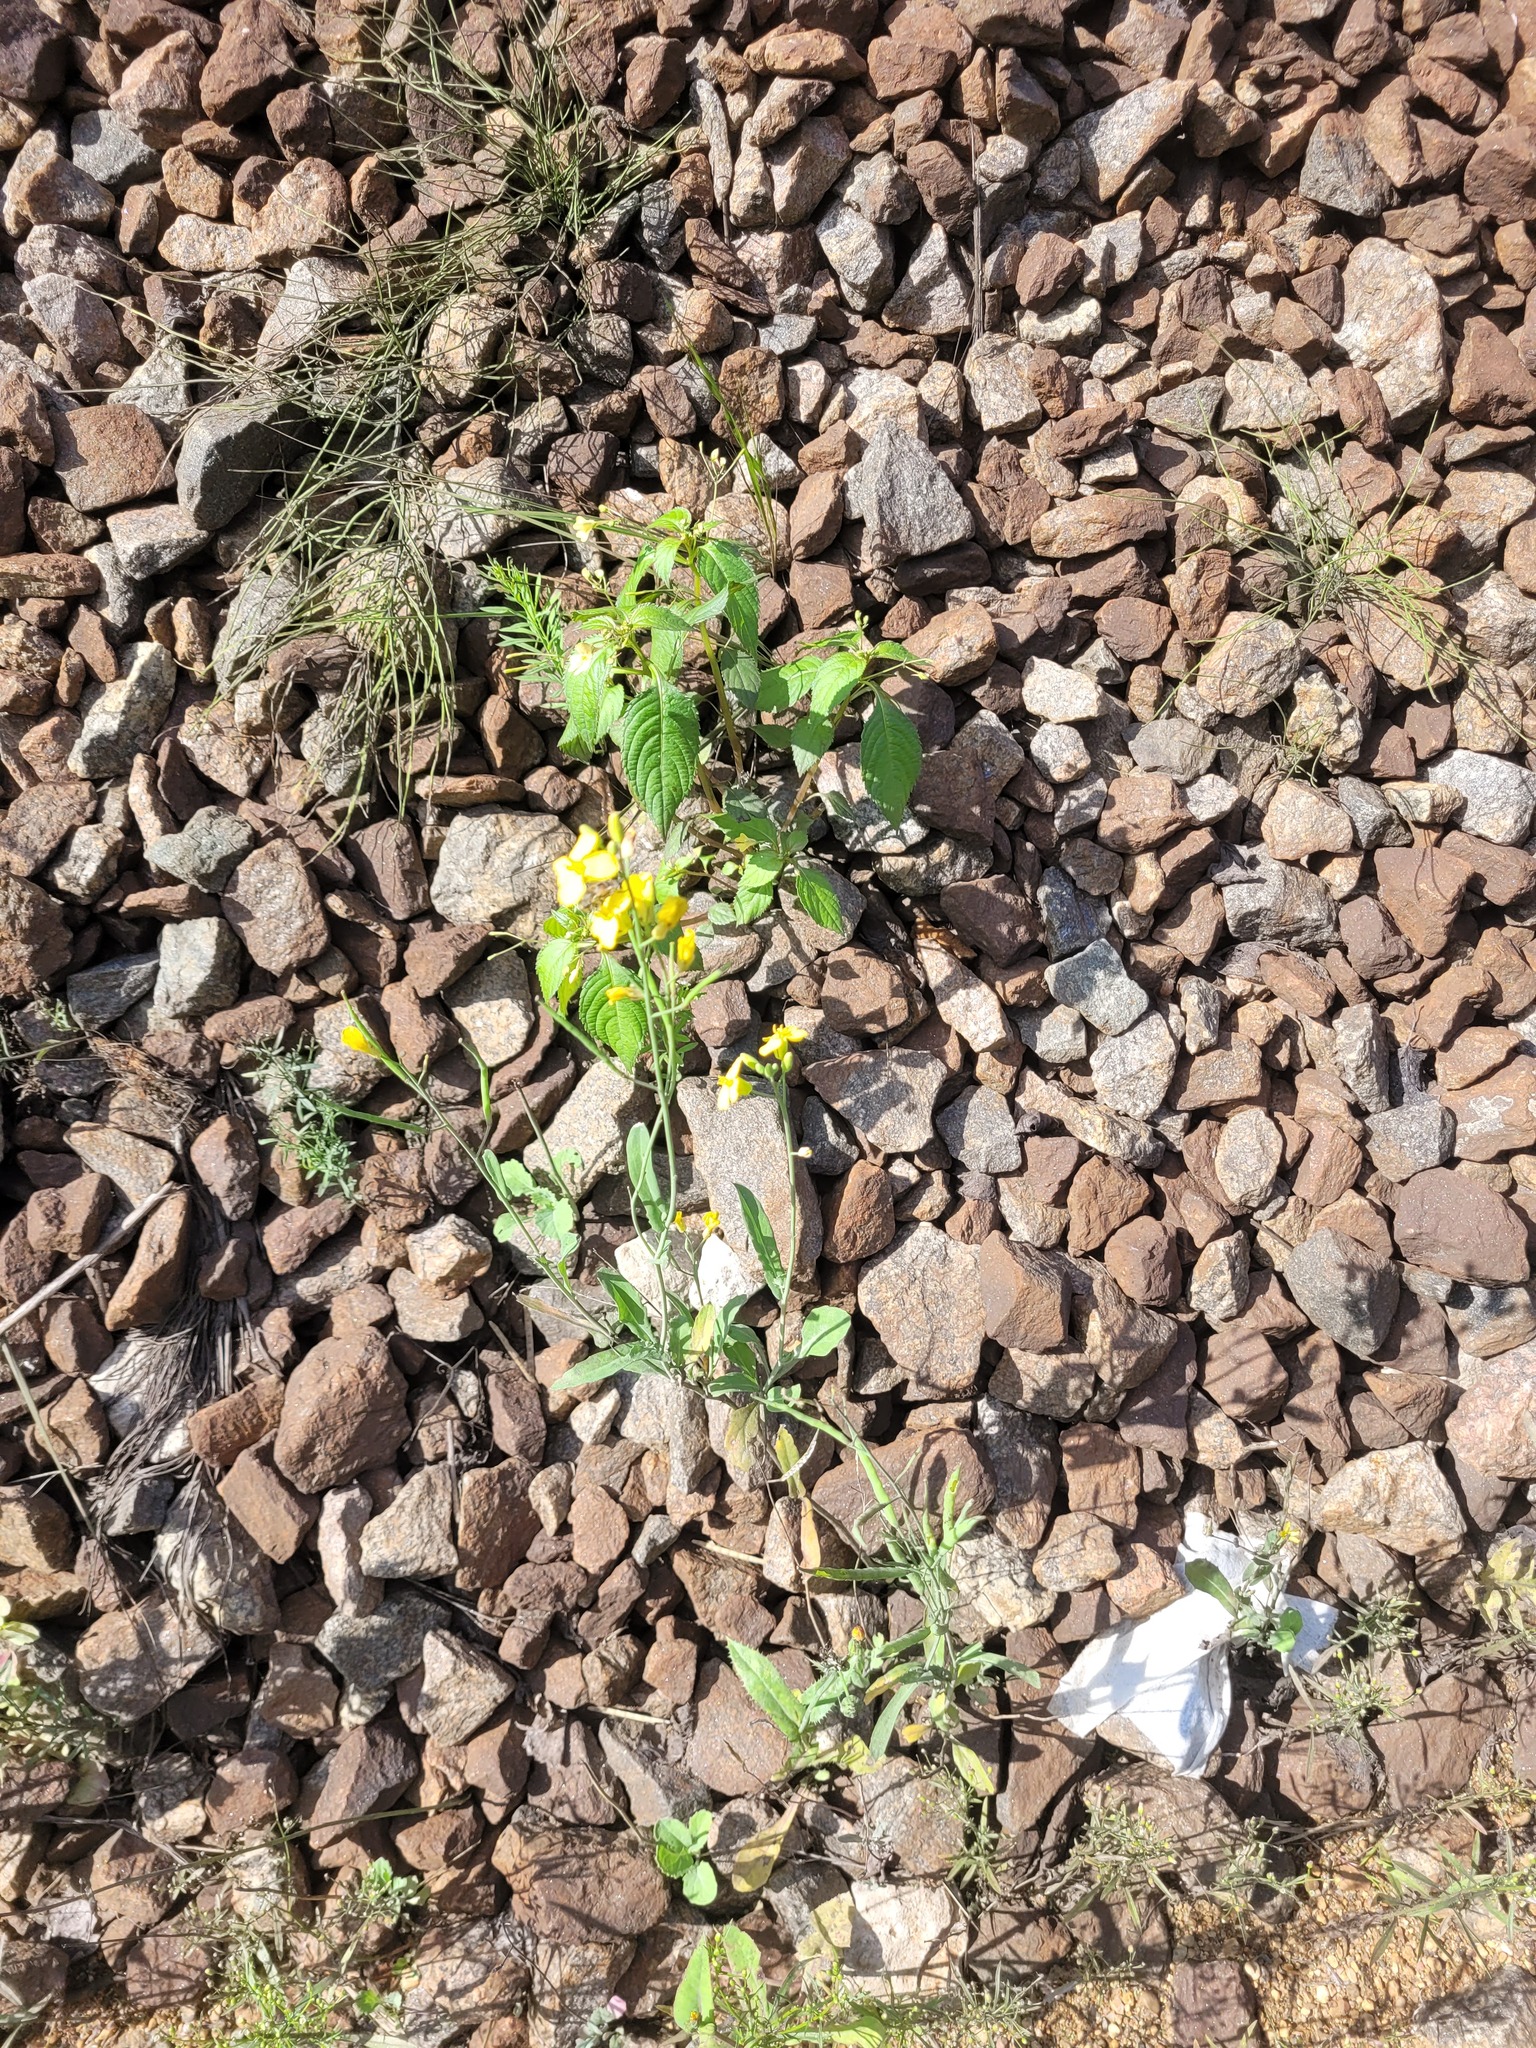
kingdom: Plantae
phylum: Tracheophyta
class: Magnoliopsida
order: Brassicales
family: Brassicaceae
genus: Brassica
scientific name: Brassica napus
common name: Rape
